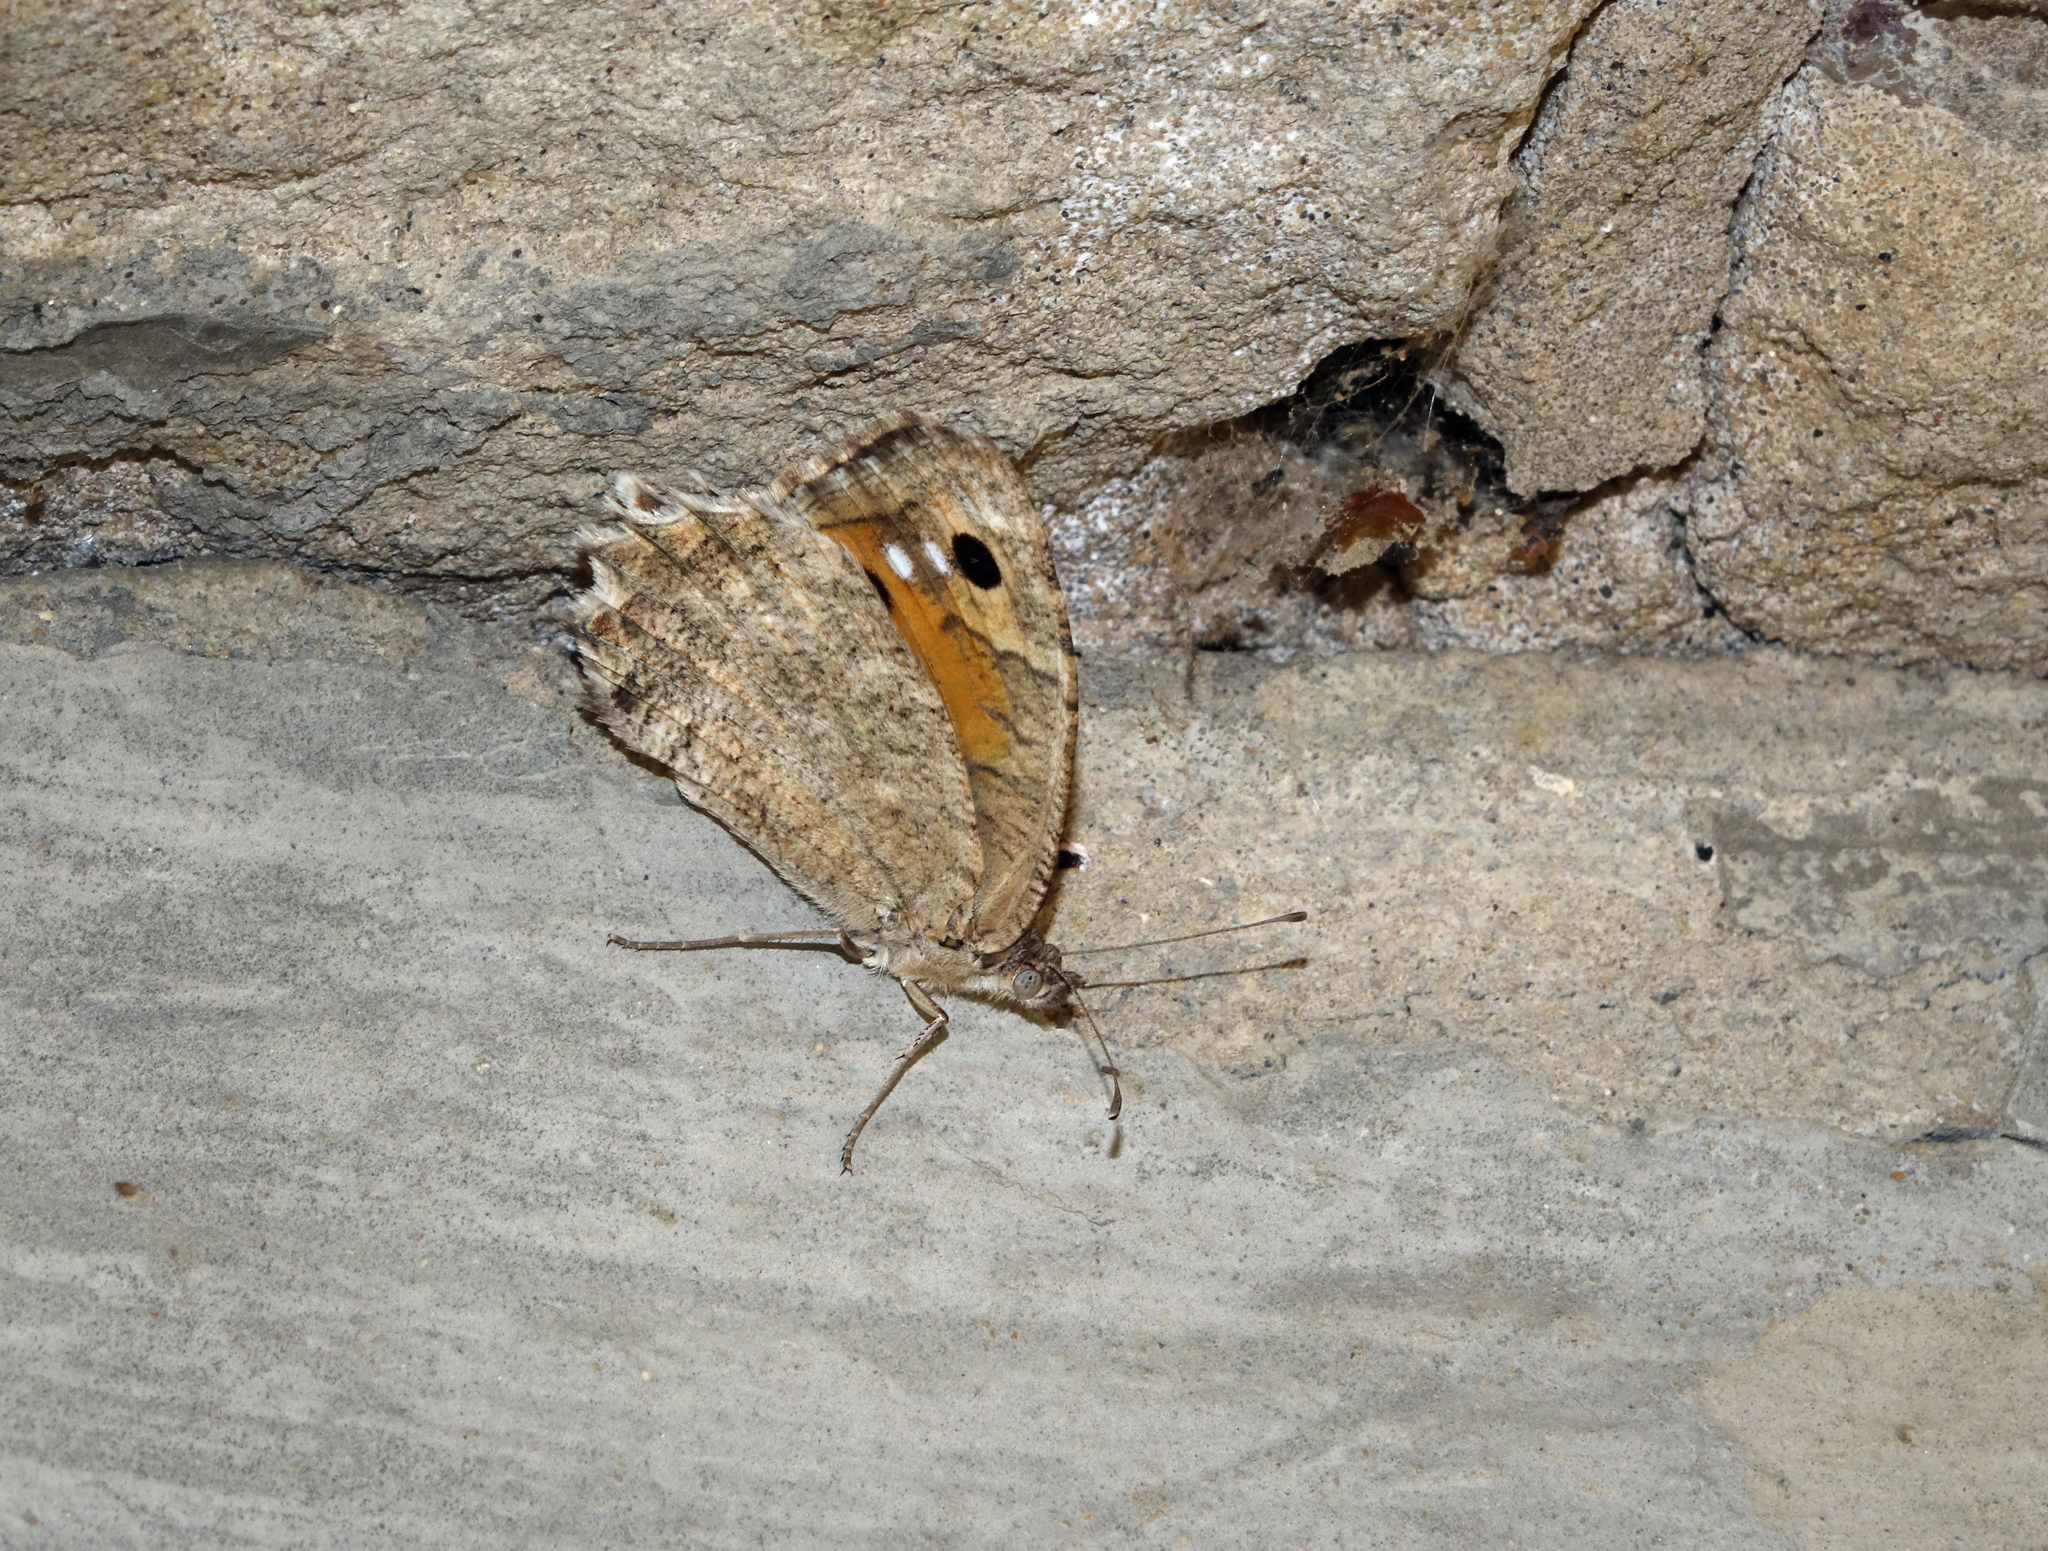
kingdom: Animalia
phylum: Arthropoda
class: Insecta
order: Lepidoptera
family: Nymphalidae
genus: Pseudochazara
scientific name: Pseudochazara pelopea
